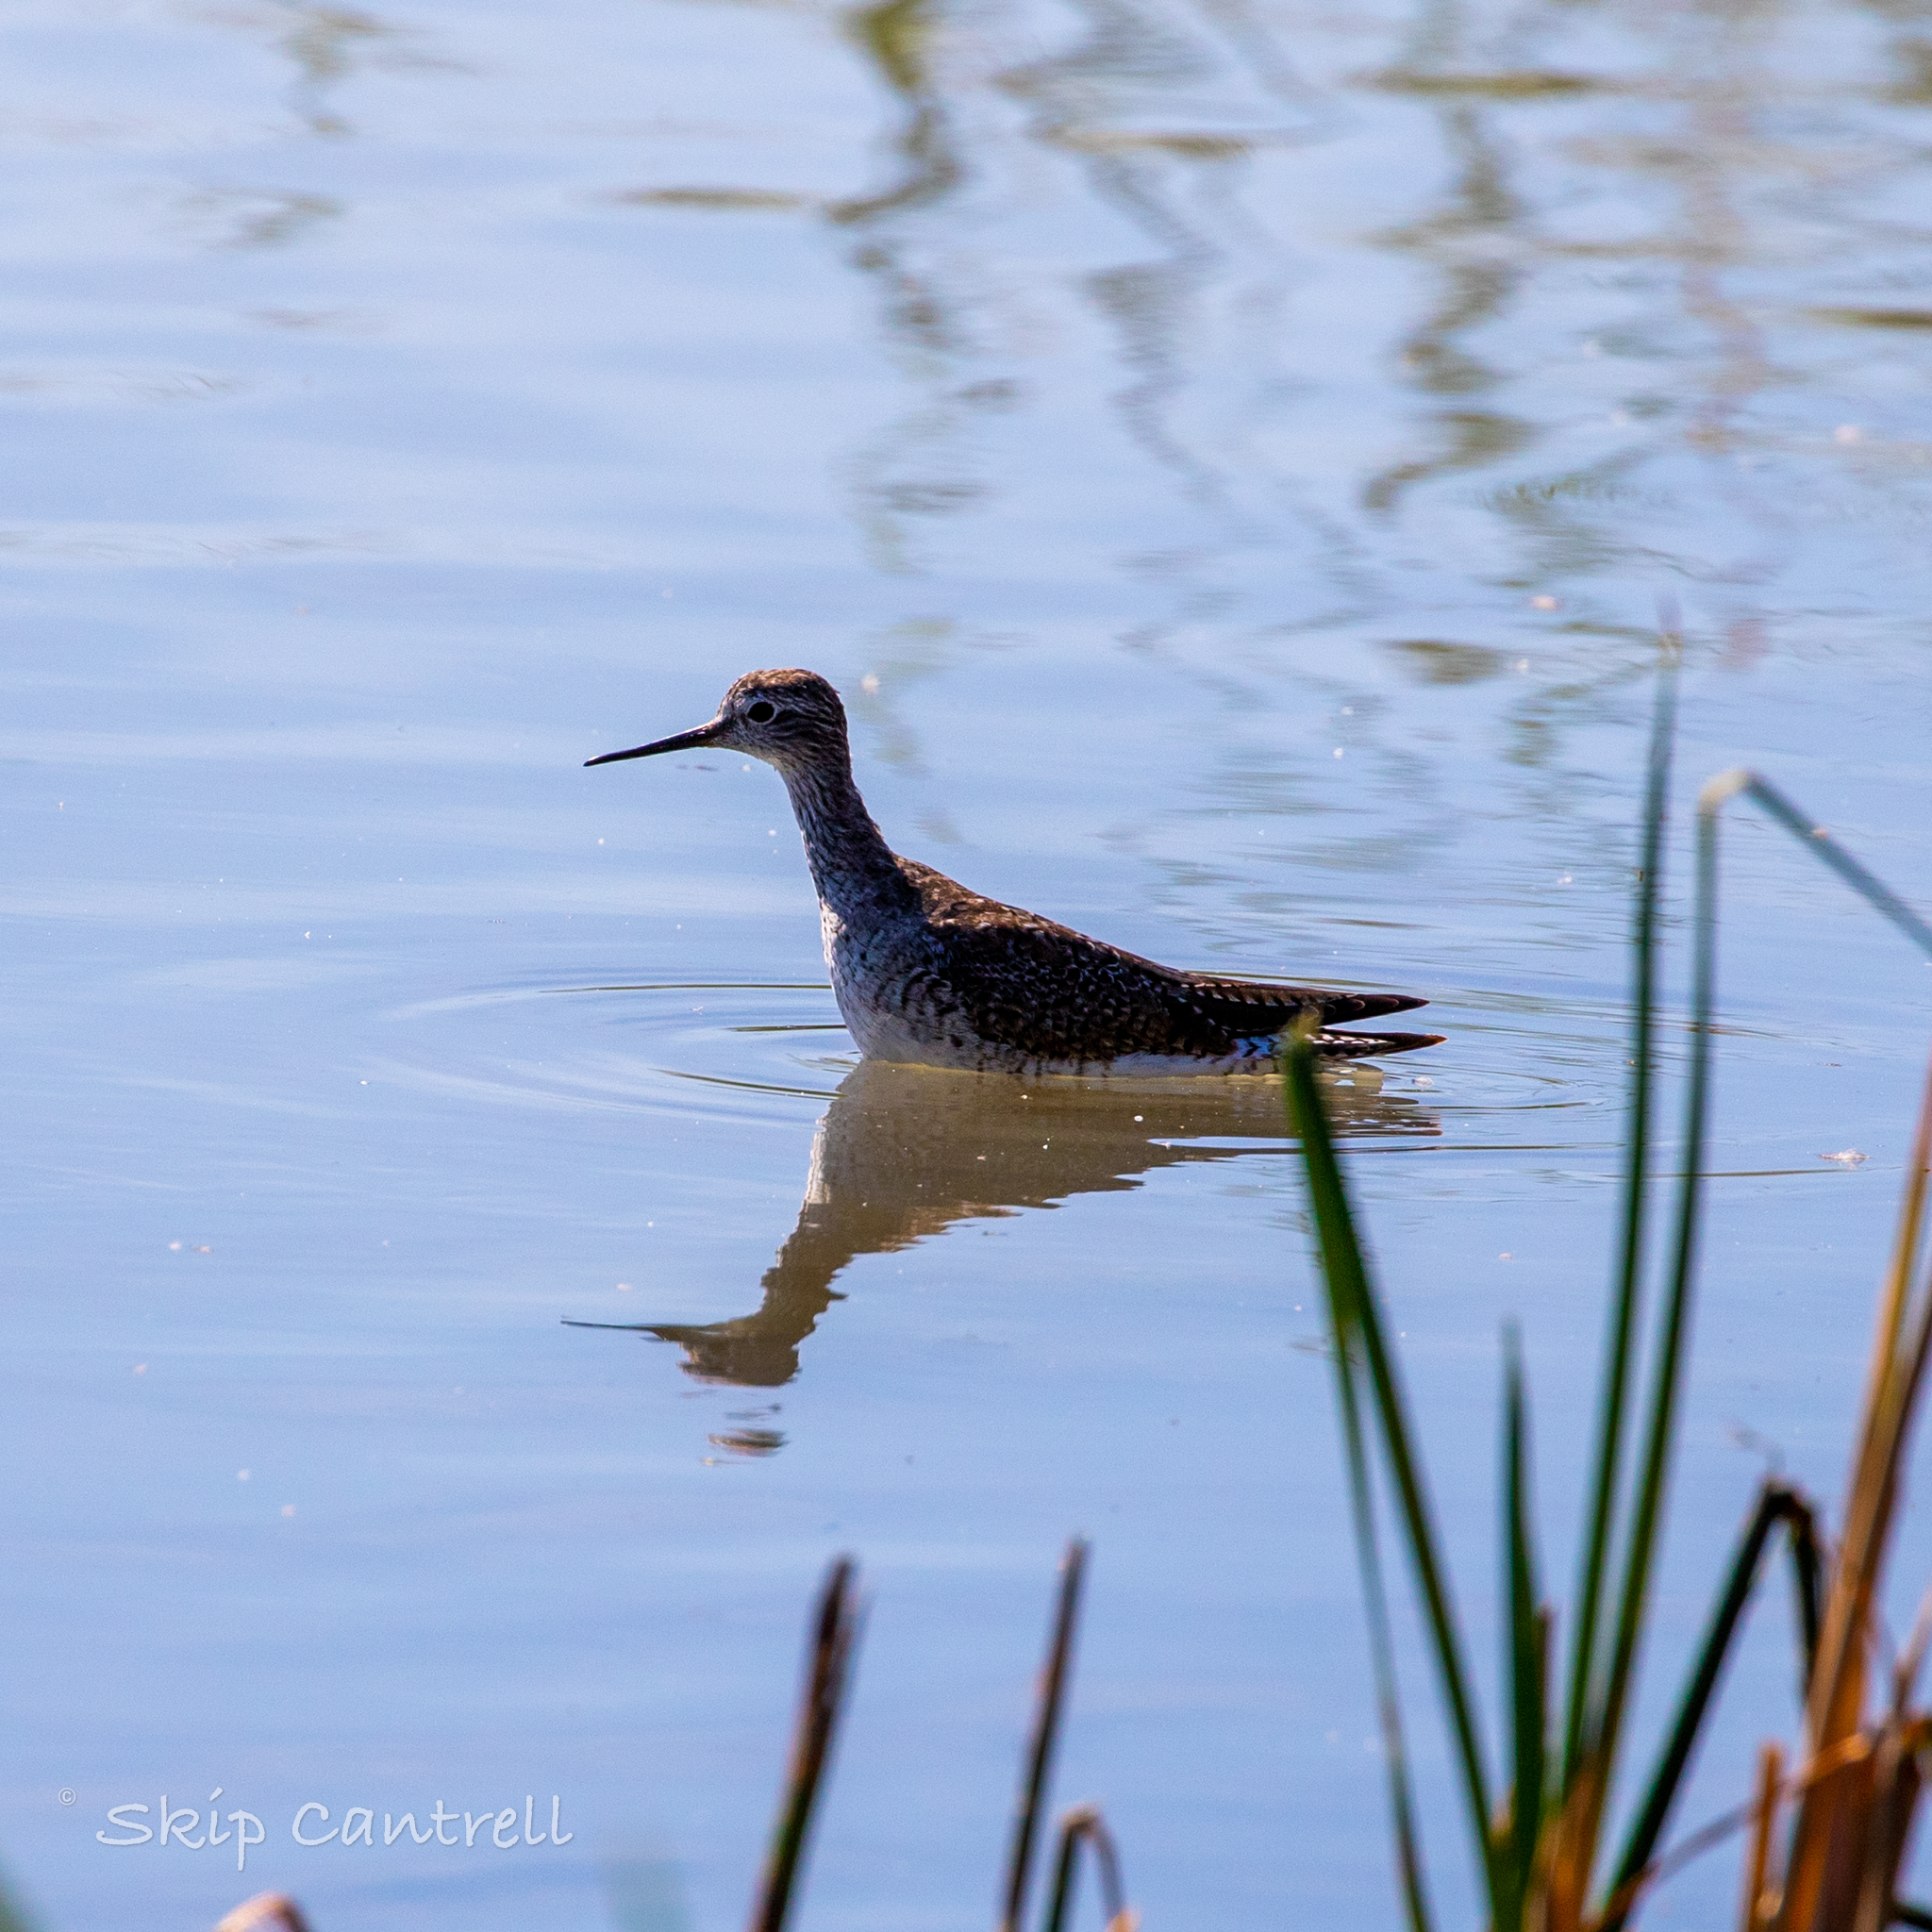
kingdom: Animalia
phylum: Chordata
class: Aves
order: Charadriiformes
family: Scolopacidae
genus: Tringa
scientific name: Tringa flavipes
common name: Lesser yellowlegs
